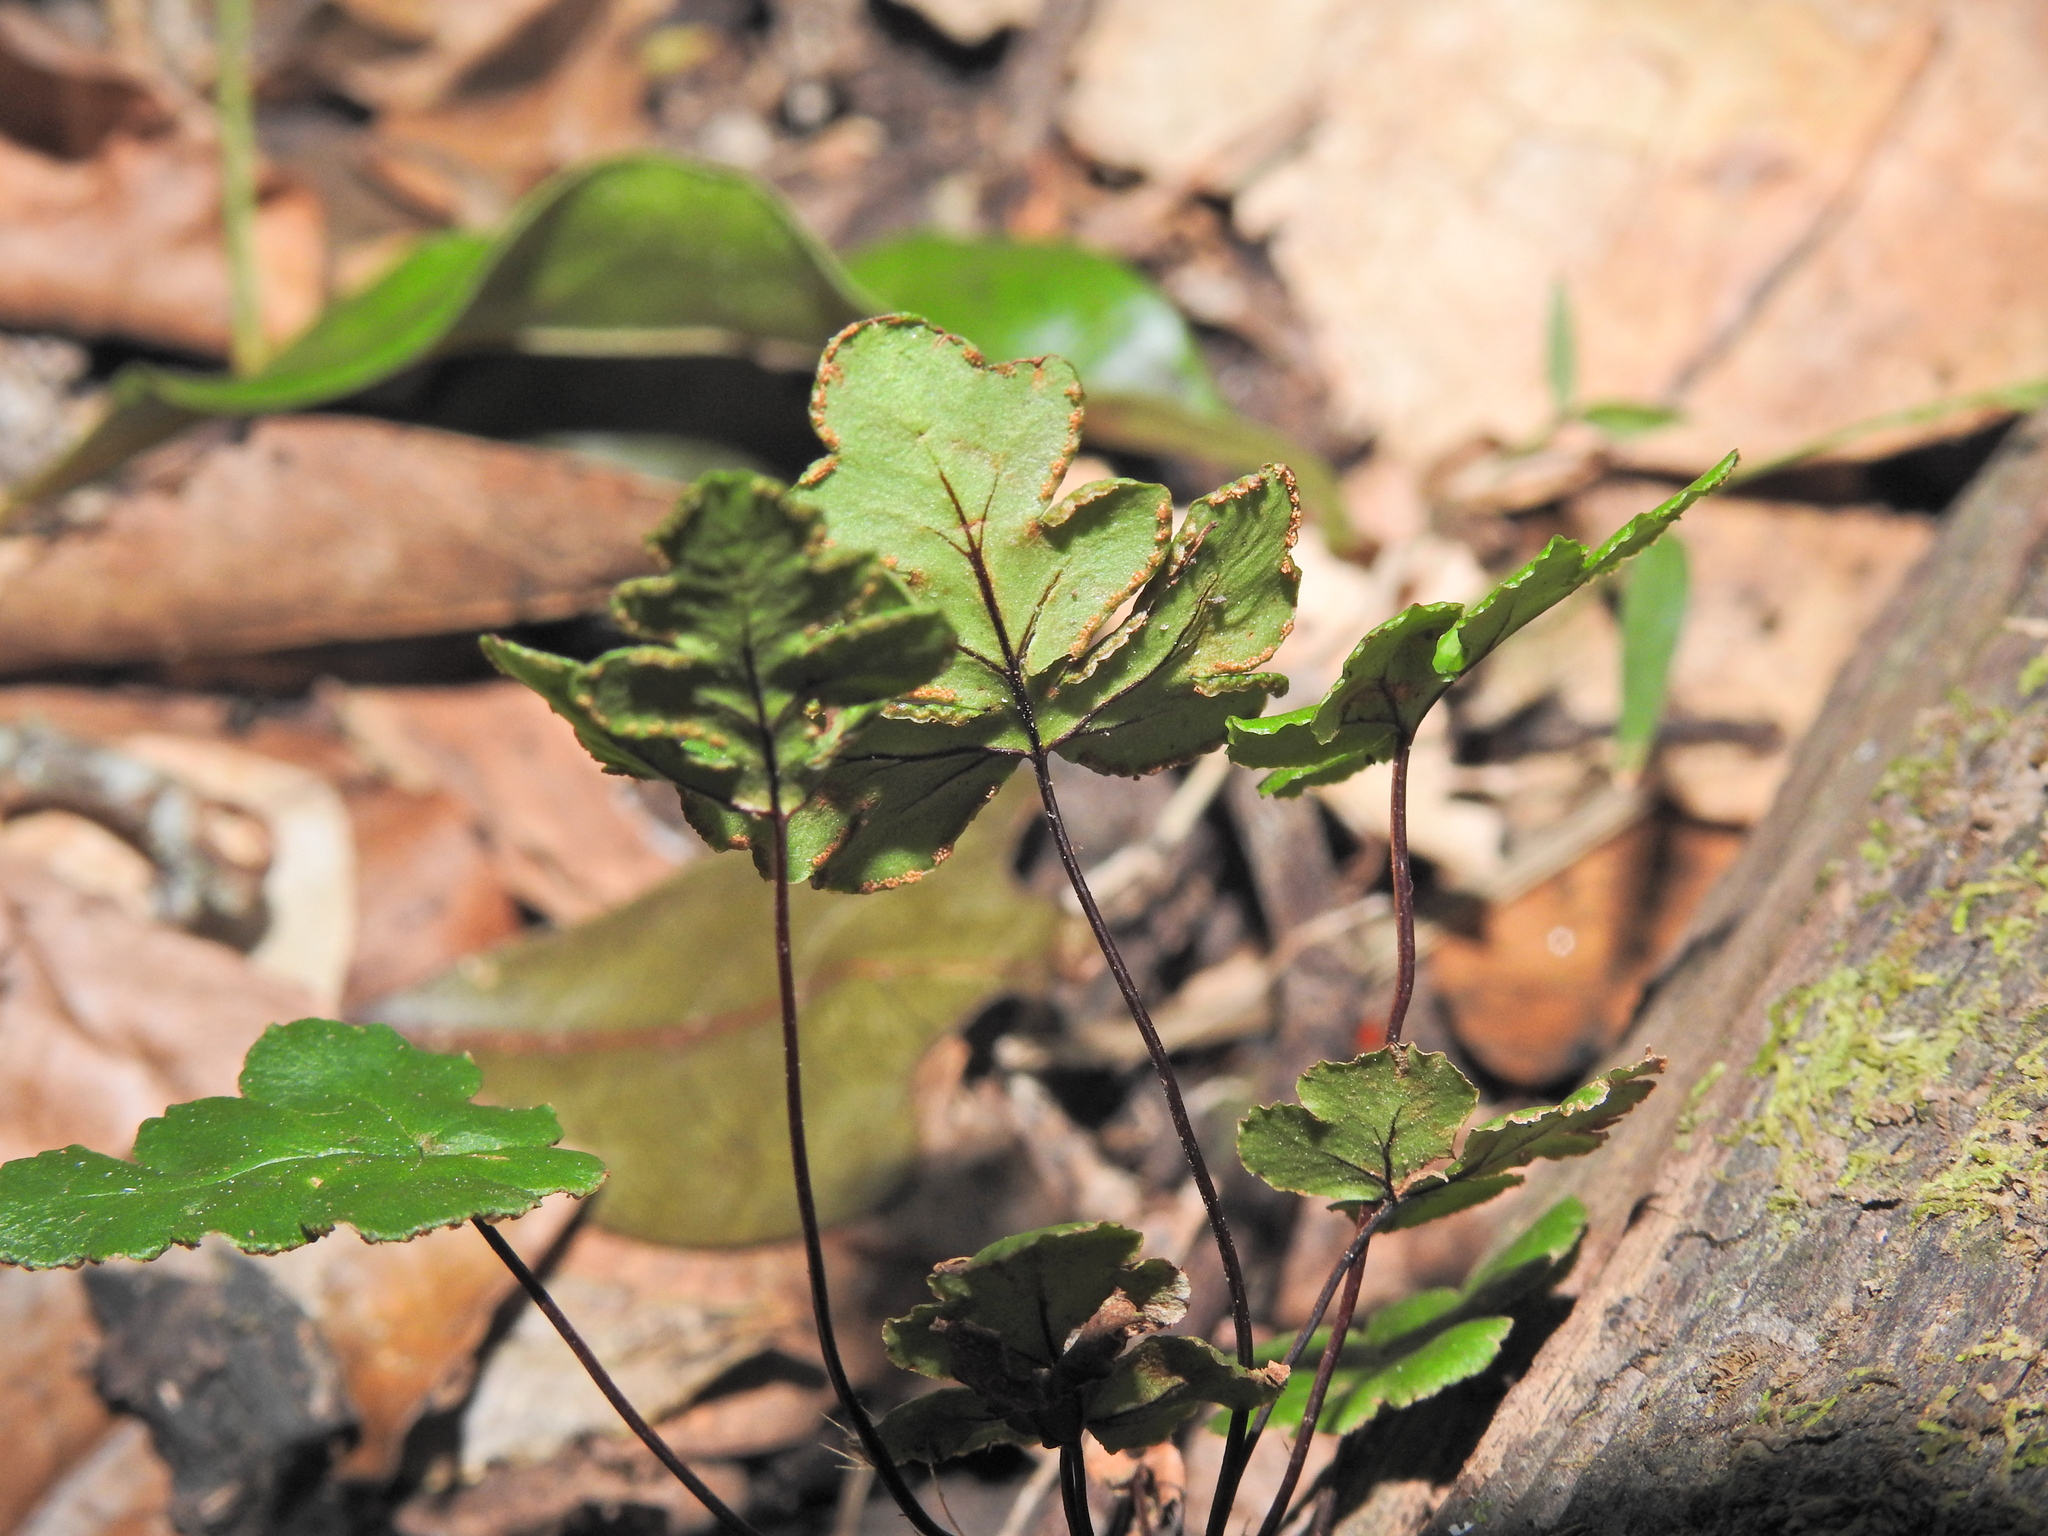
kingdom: Plantae
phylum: Tracheophyta
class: Polypodiopsida
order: Polypodiales
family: Pteridaceae
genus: Doryopteris
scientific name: Doryopteris concolor
